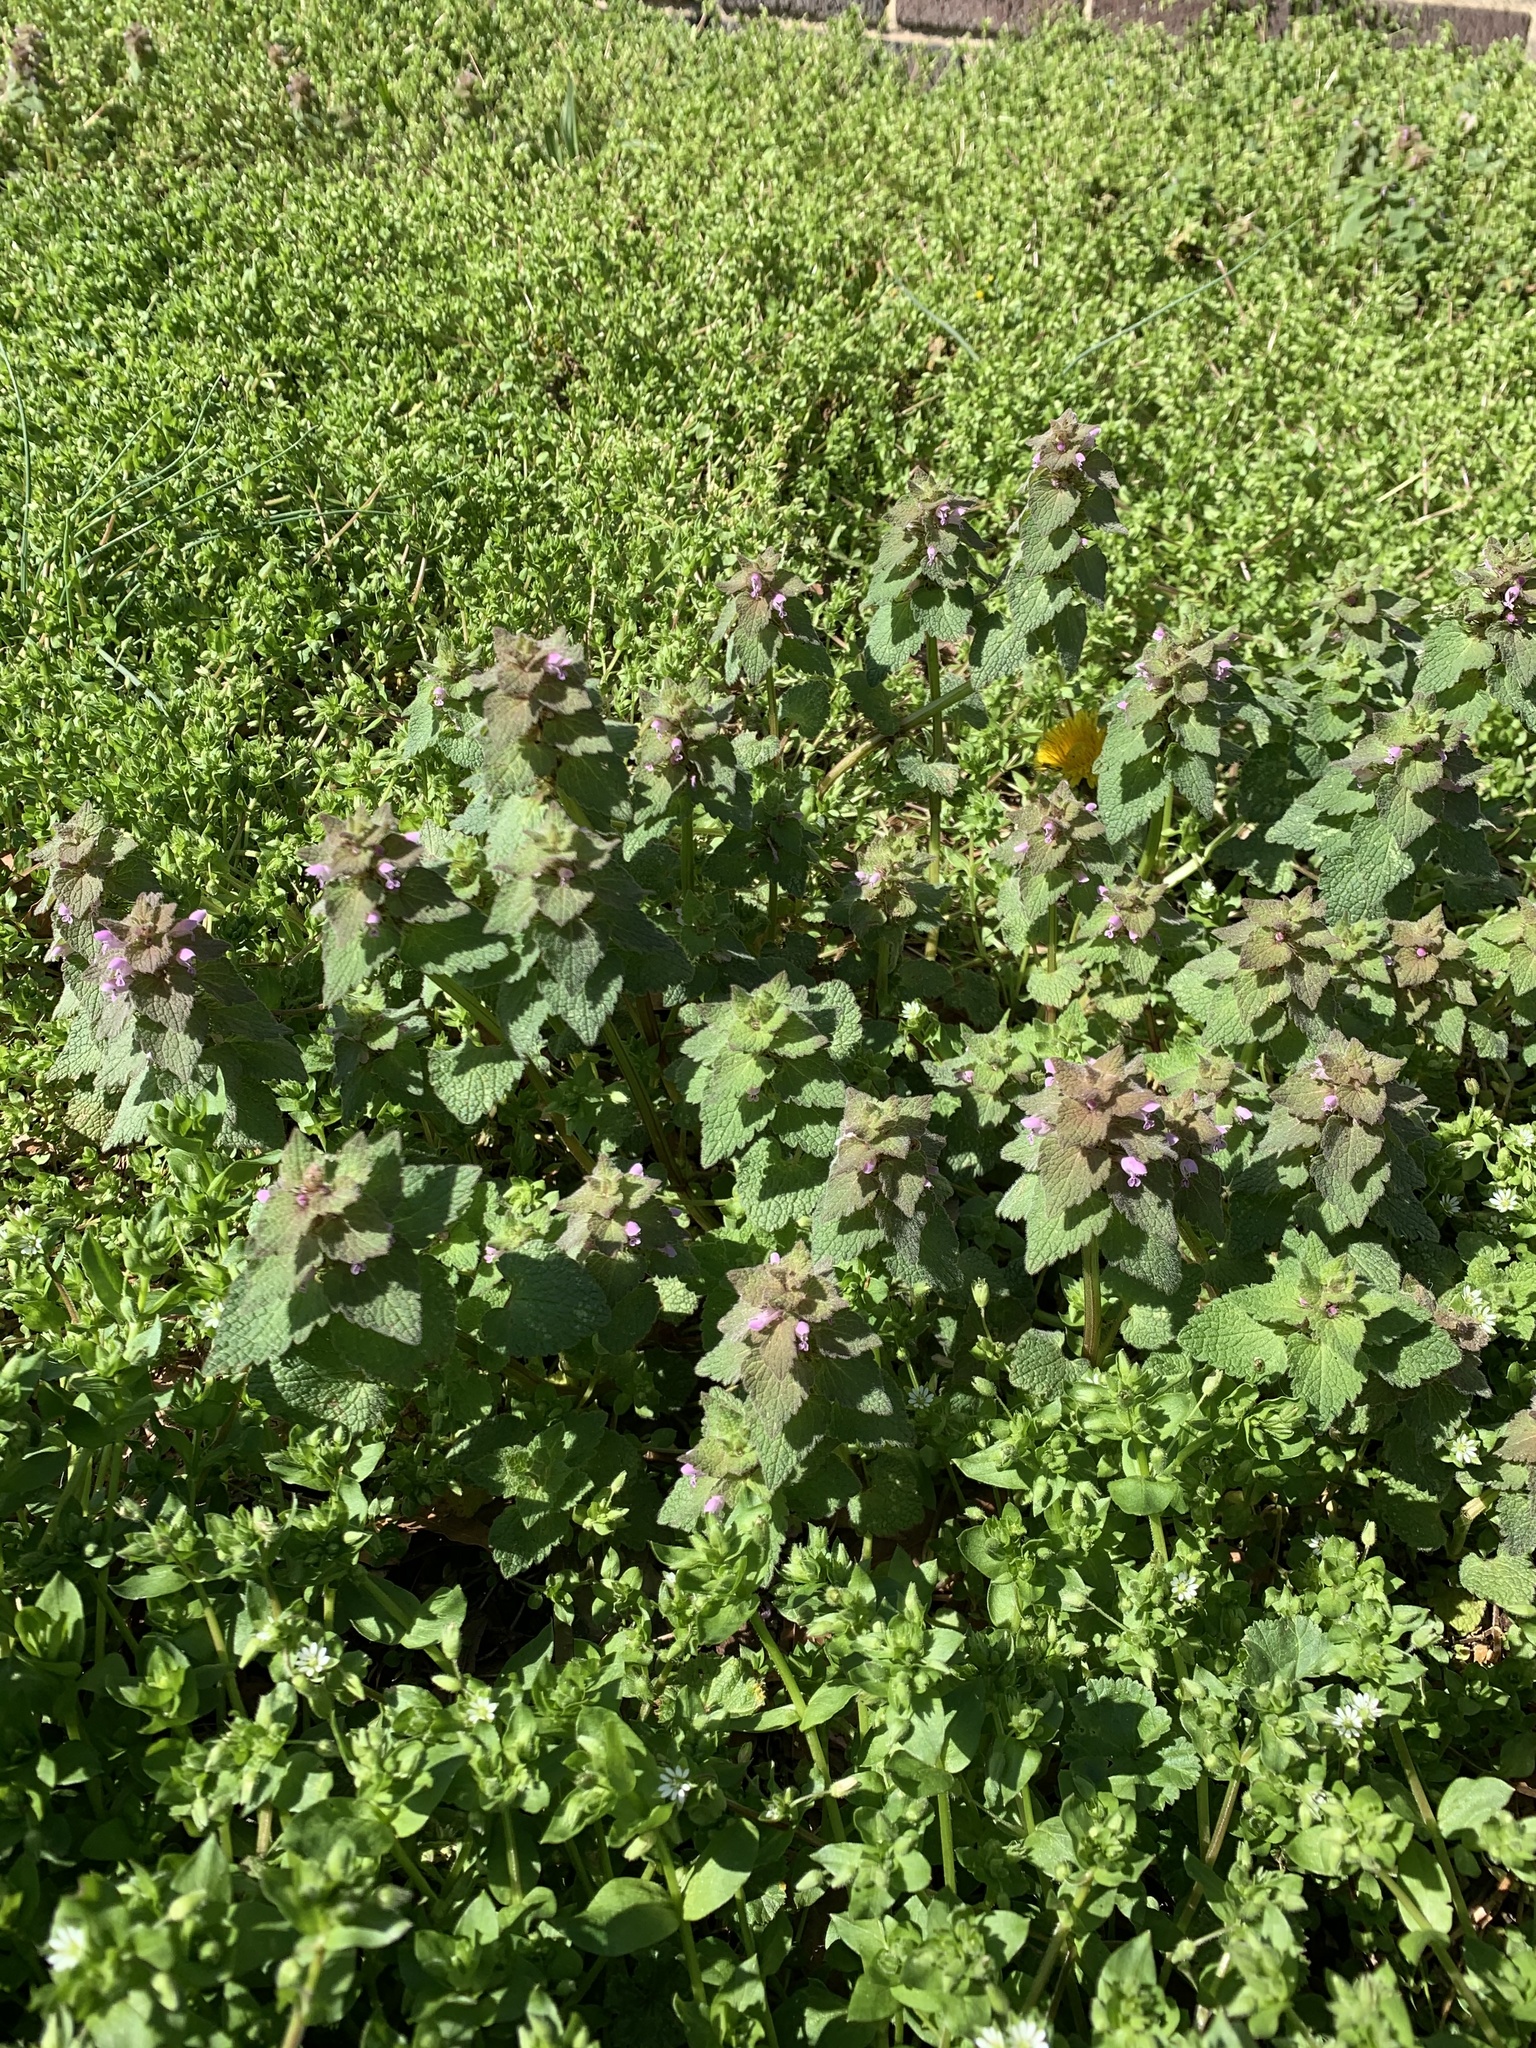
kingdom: Plantae
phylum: Tracheophyta
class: Magnoliopsida
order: Lamiales
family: Lamiaceae
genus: Lamium
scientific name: Lamium purpureum
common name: Red dead-nettle
